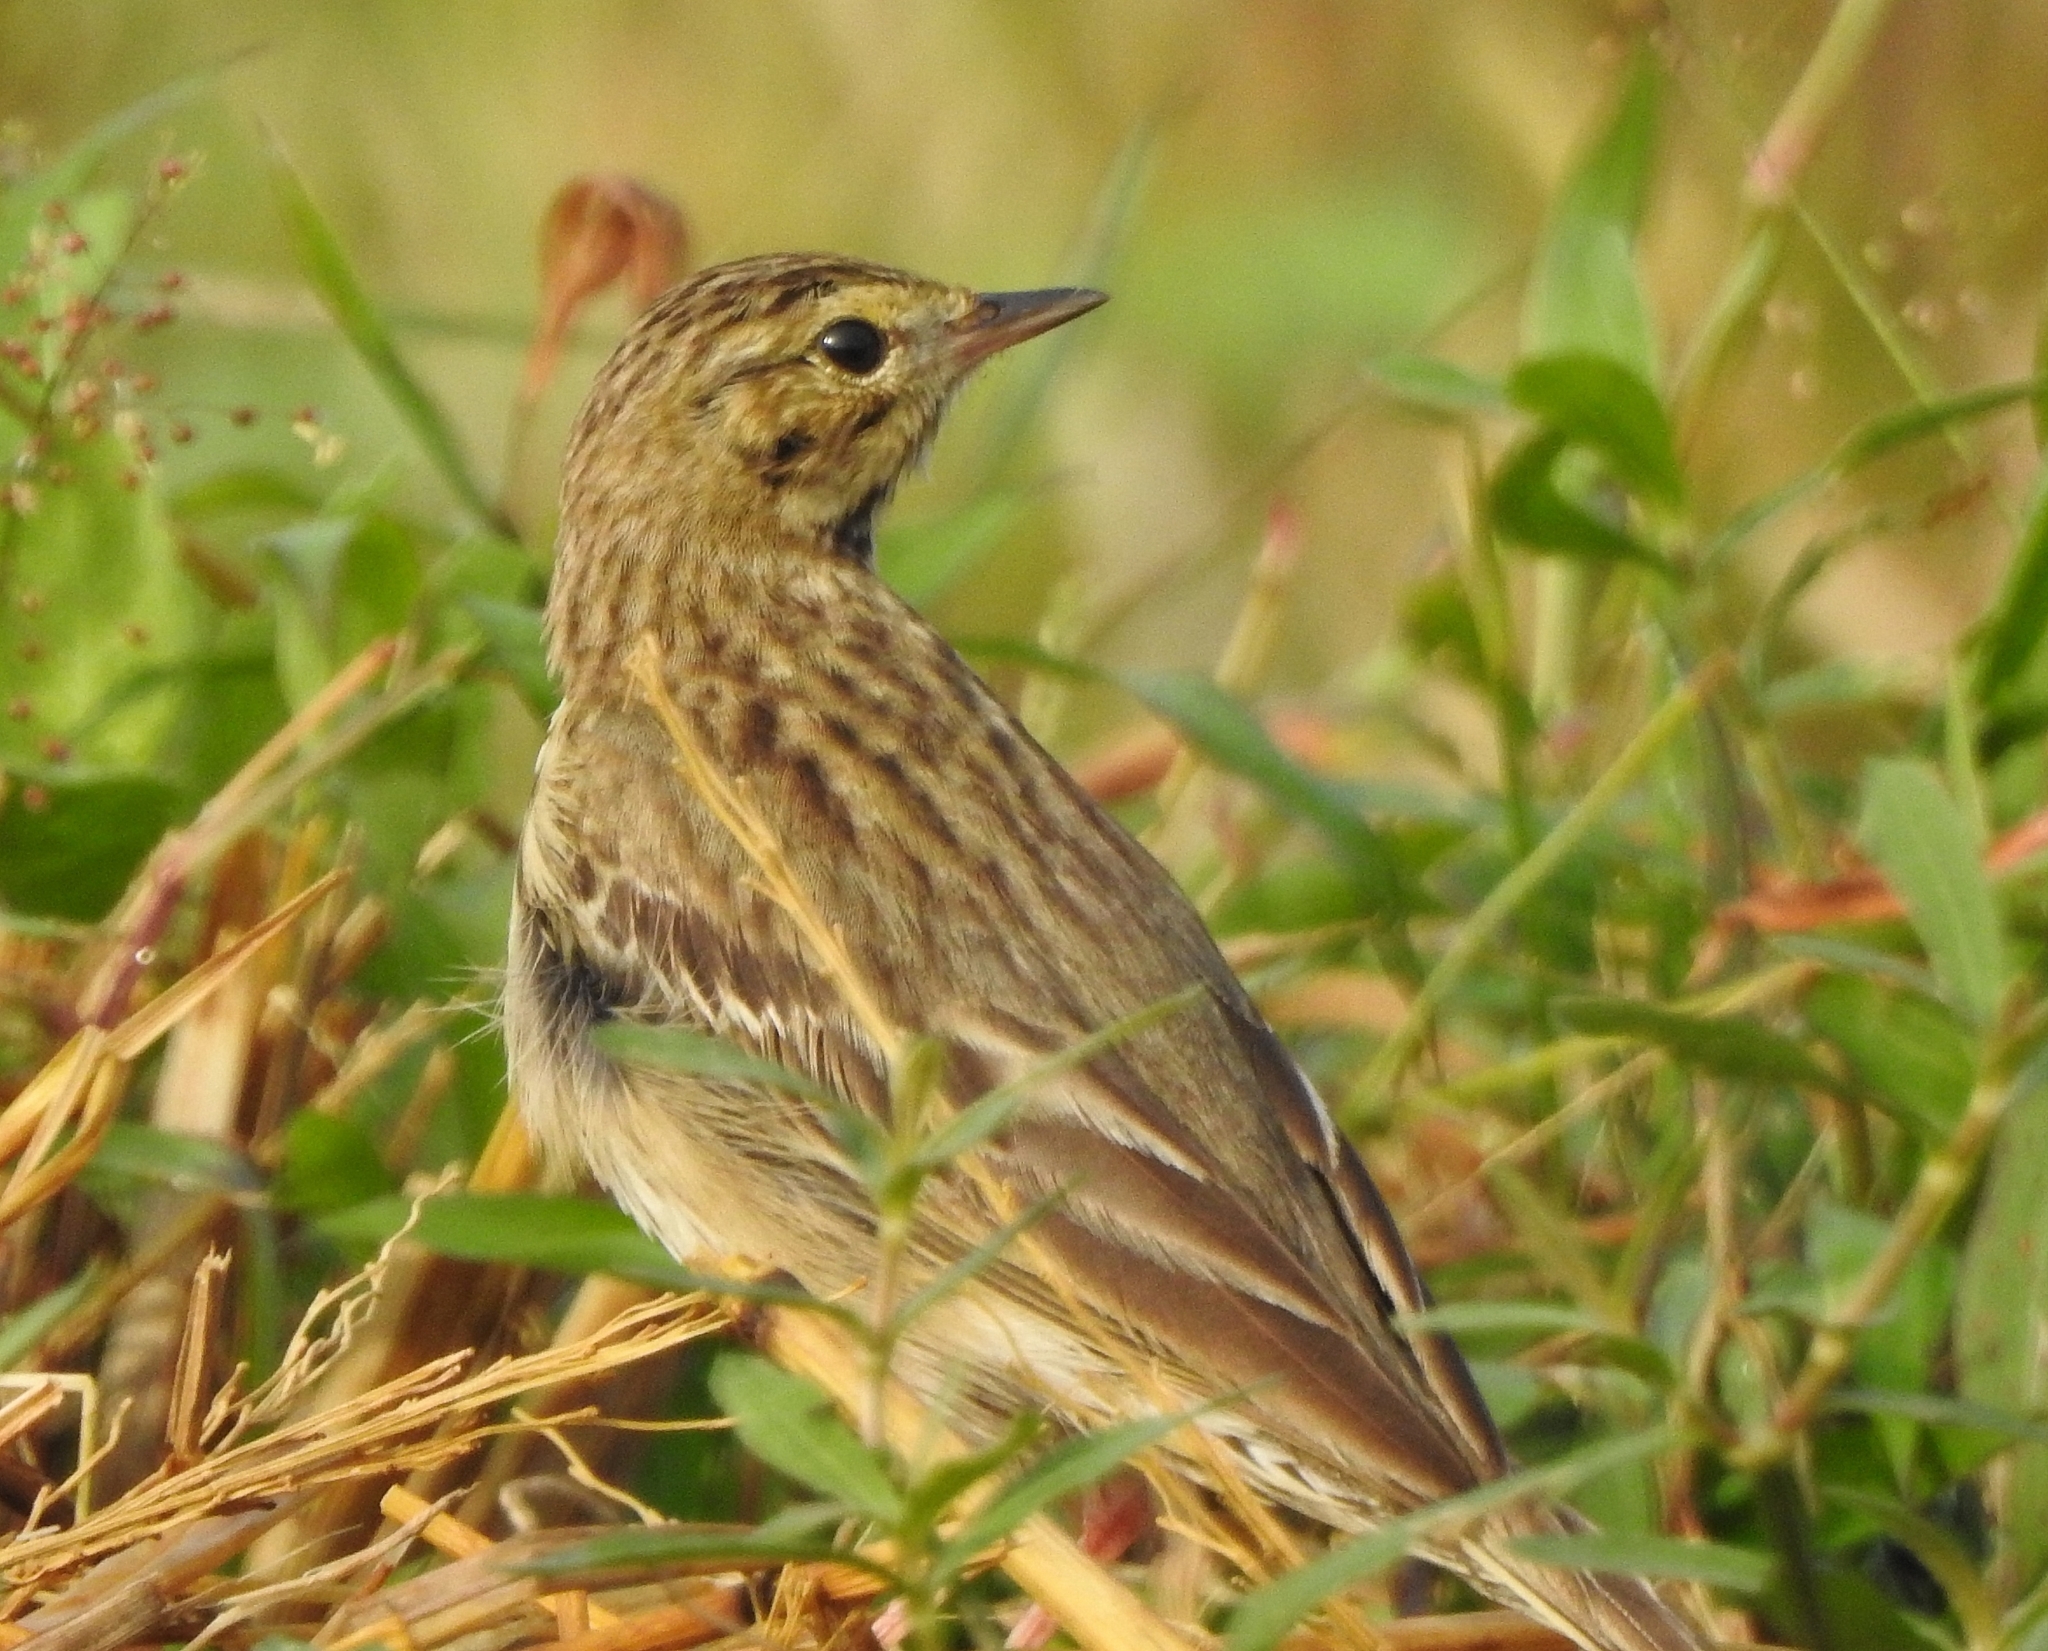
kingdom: Animalia
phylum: Chordata
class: Aves
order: Passeriformes
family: Motacillidae
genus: Anthus
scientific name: Anthus trivialis
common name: Tree pipit
